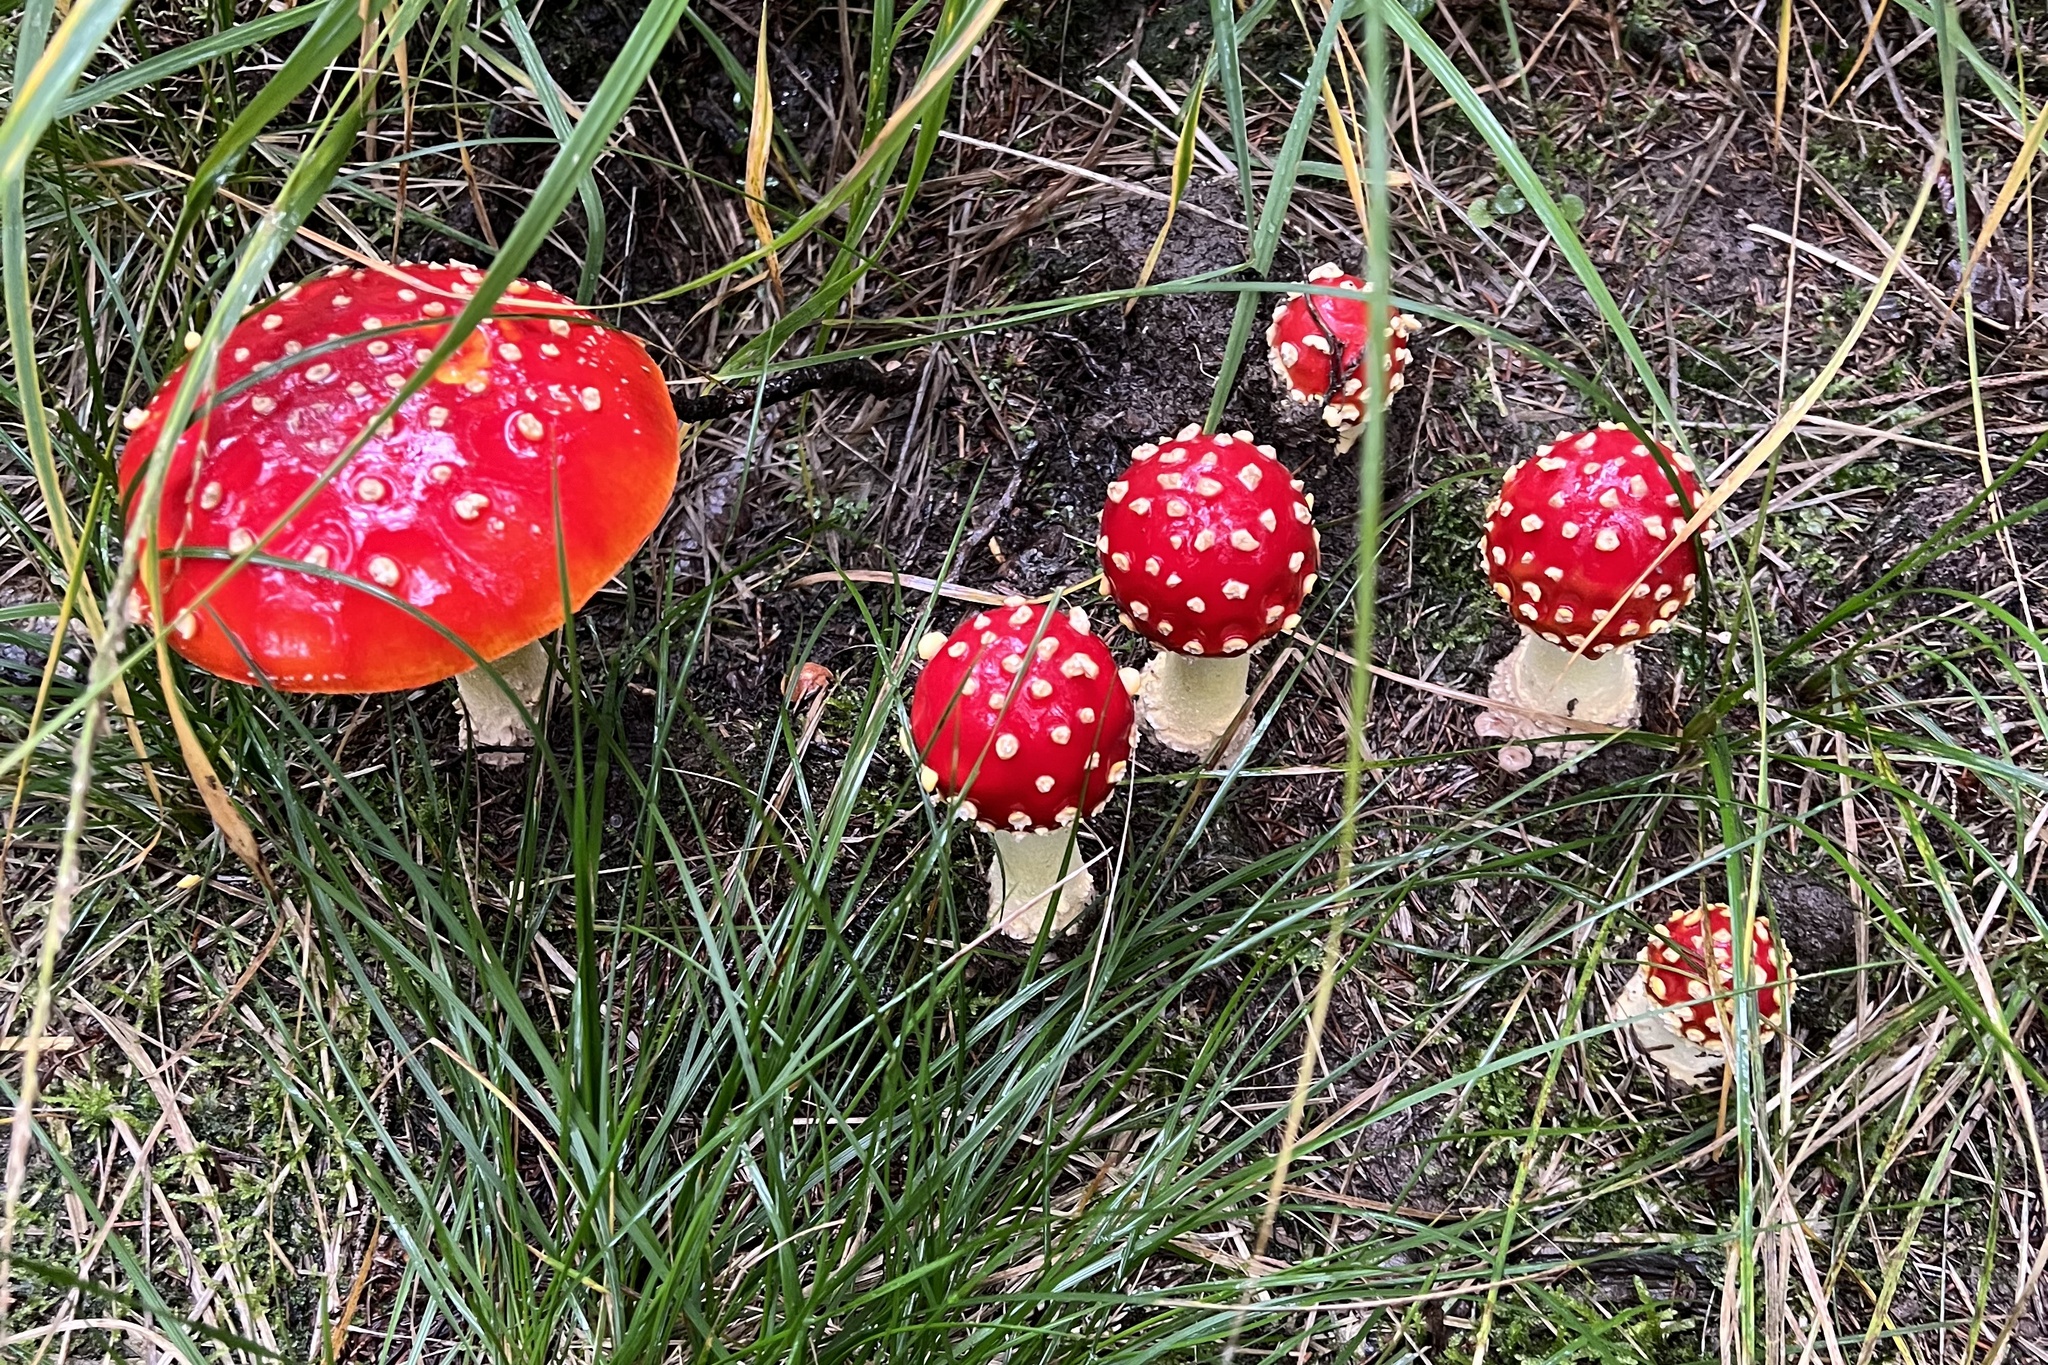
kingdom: Fungi
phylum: Basidiomycota
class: Agaricomycetes
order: Agaricales
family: Amanitaceae
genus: Amanita
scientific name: Amanita muscaria
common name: Fly agaric
